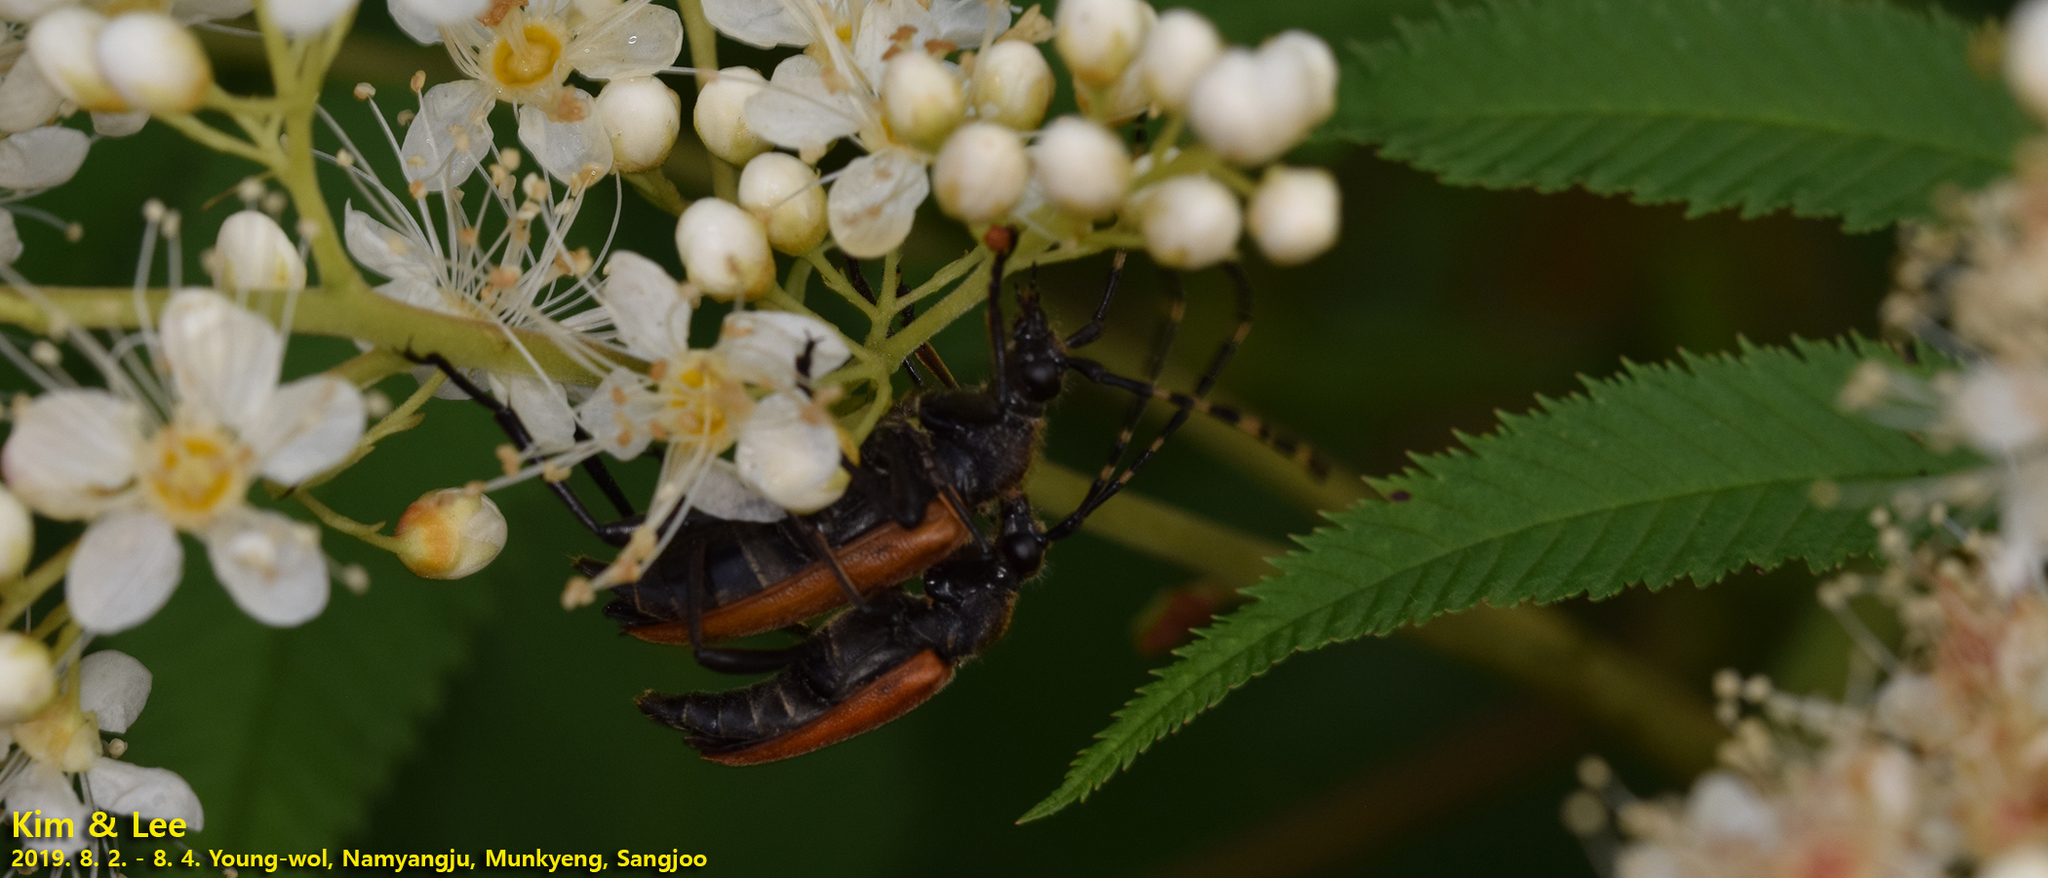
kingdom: Animalia
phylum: Arthropoda
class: Insecta
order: Coleoptera
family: Cerambycidae
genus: Stictoleptura
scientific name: Stictoleptura variicornis
